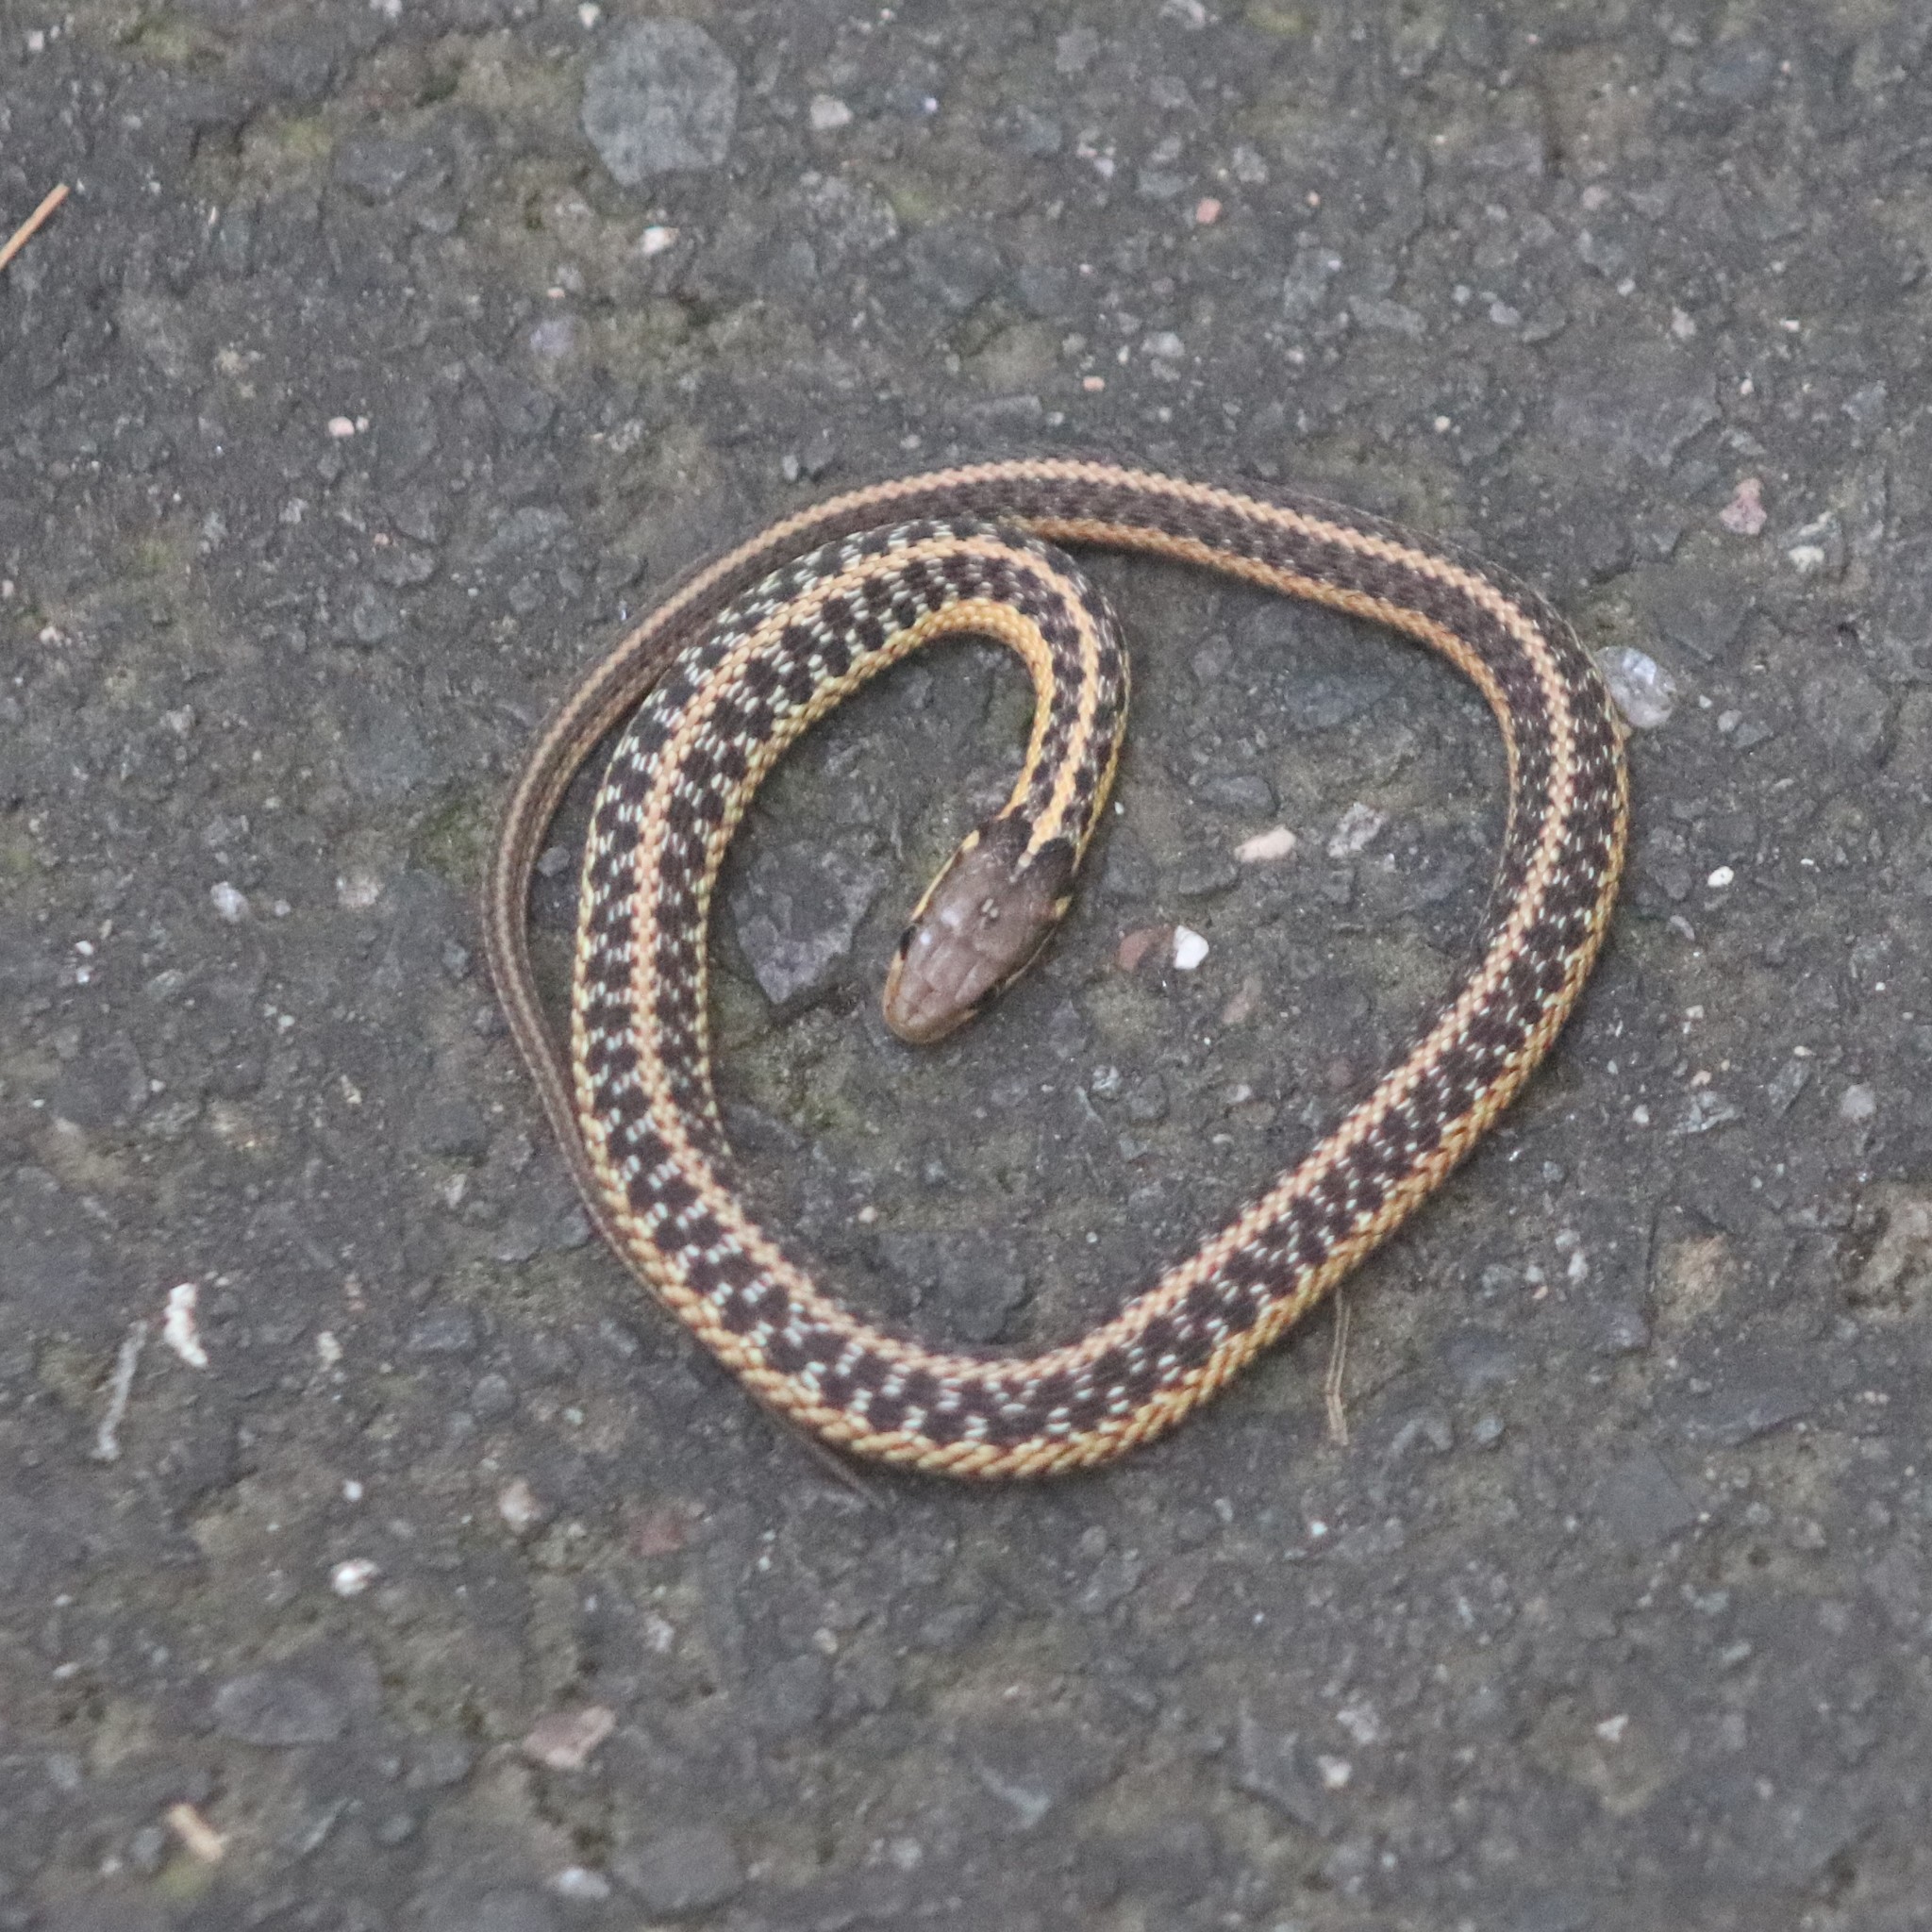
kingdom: Animalia
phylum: Chordata
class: Squamata
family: Colubridae
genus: Thamnophis
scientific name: Thamnophis sirtalis
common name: Common garter snake
